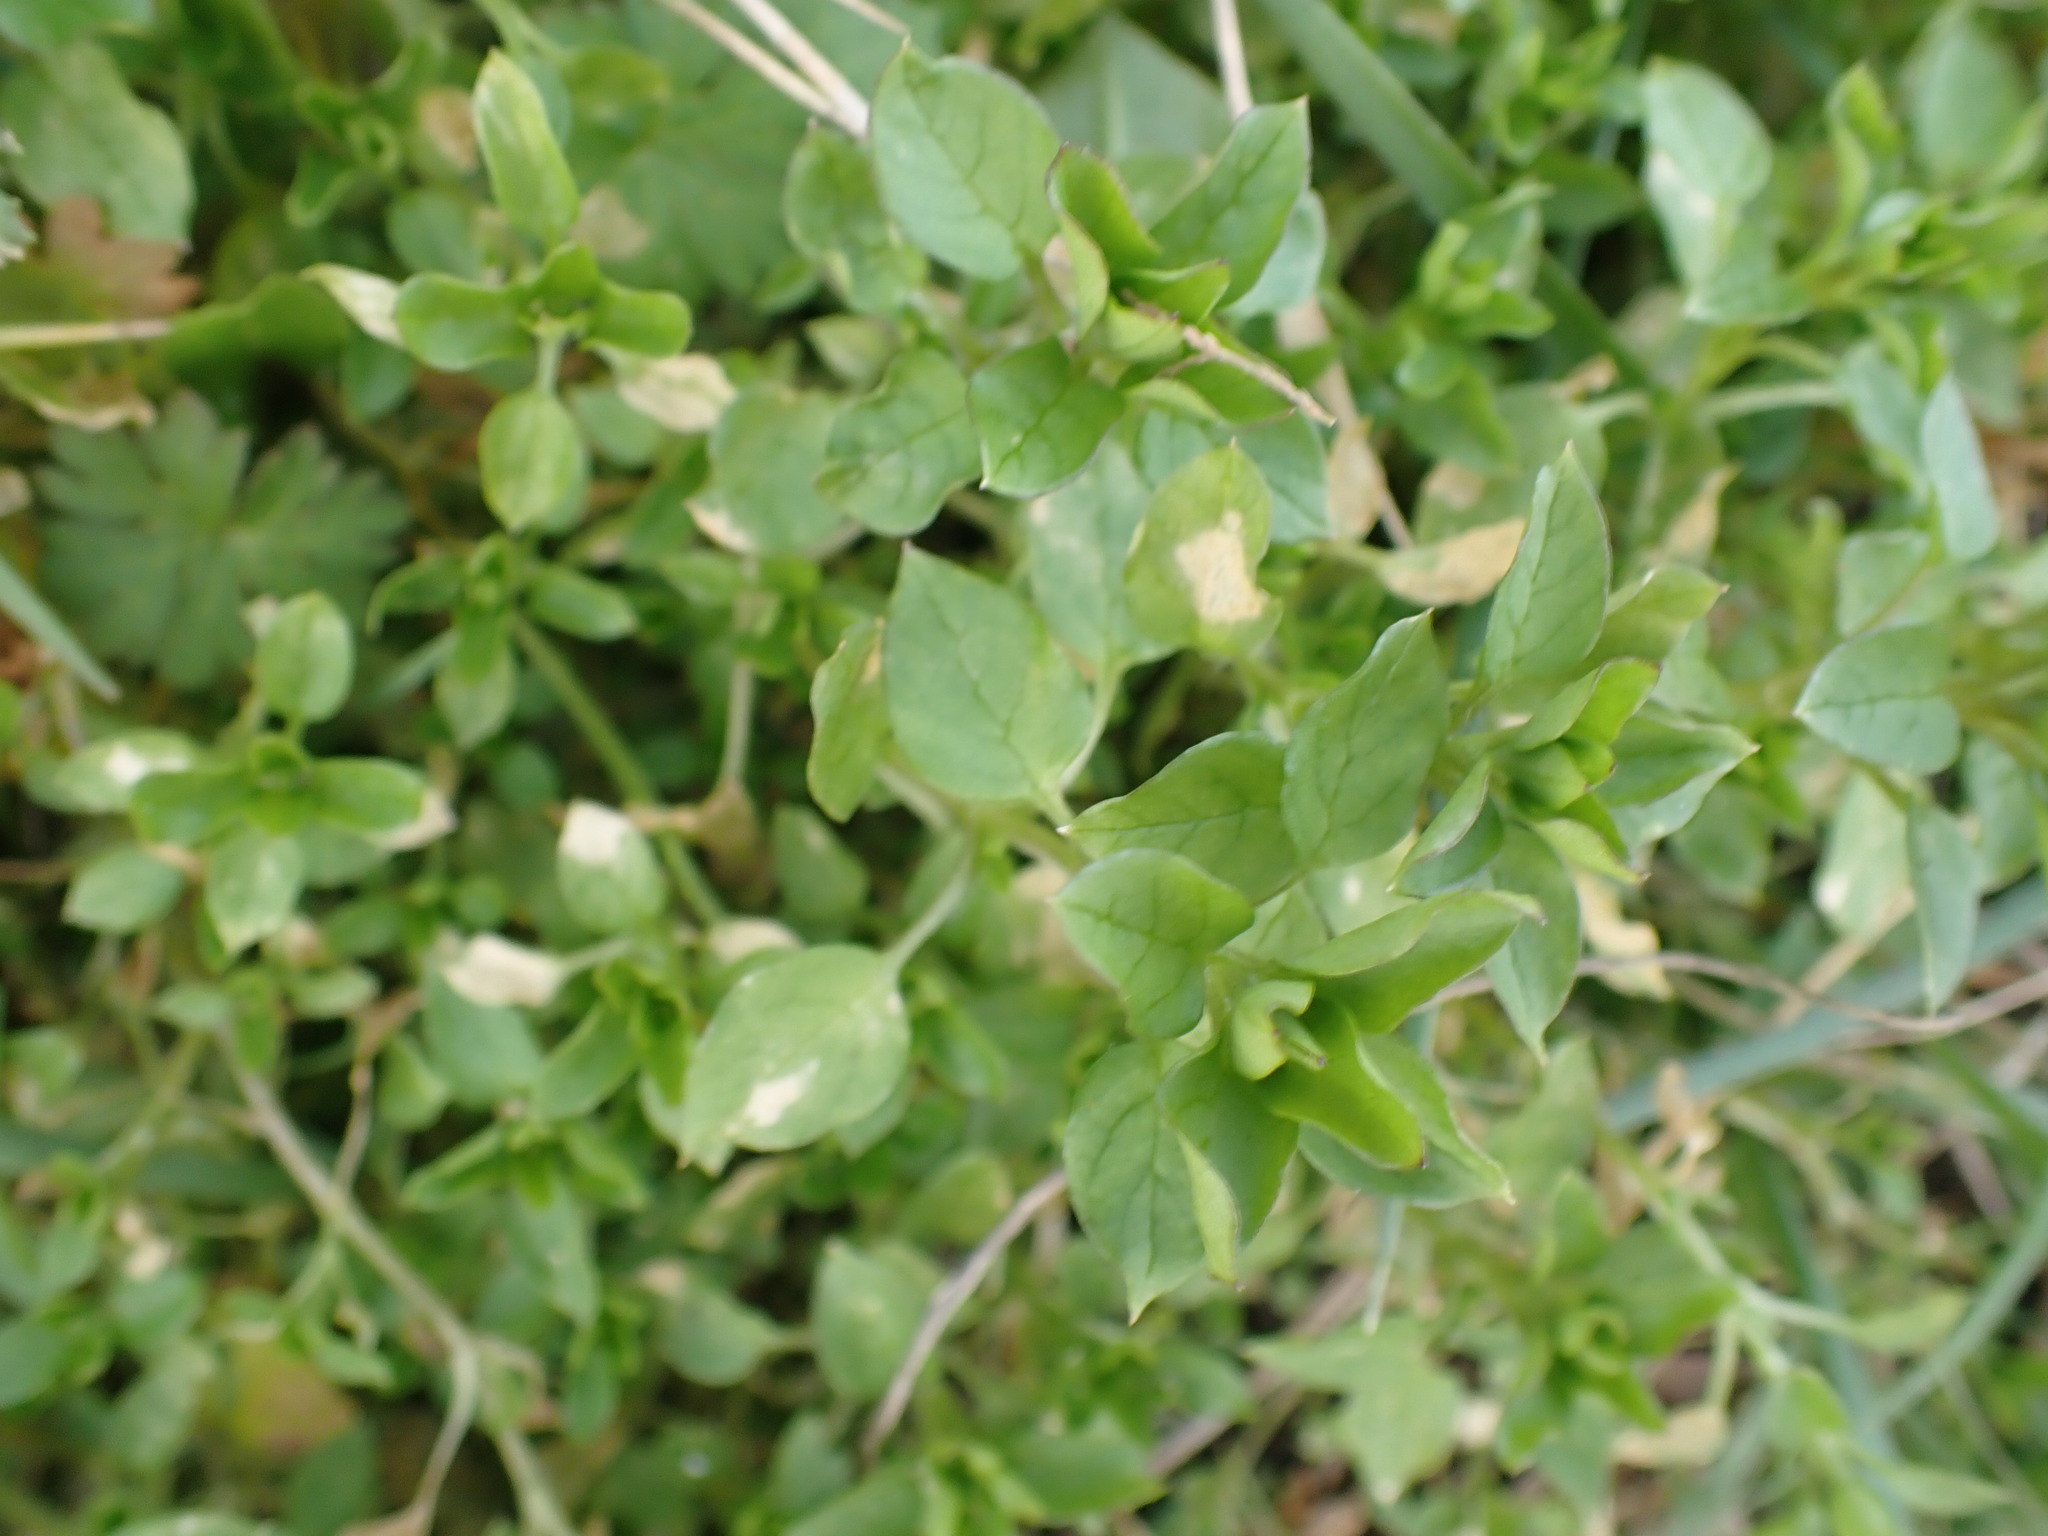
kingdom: Plantae
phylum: Tracheophyta
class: Magnoliopsida
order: Caryophyllales
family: Caryophyllaceae
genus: Stellaria
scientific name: Stellaria media
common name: Common chickweed
